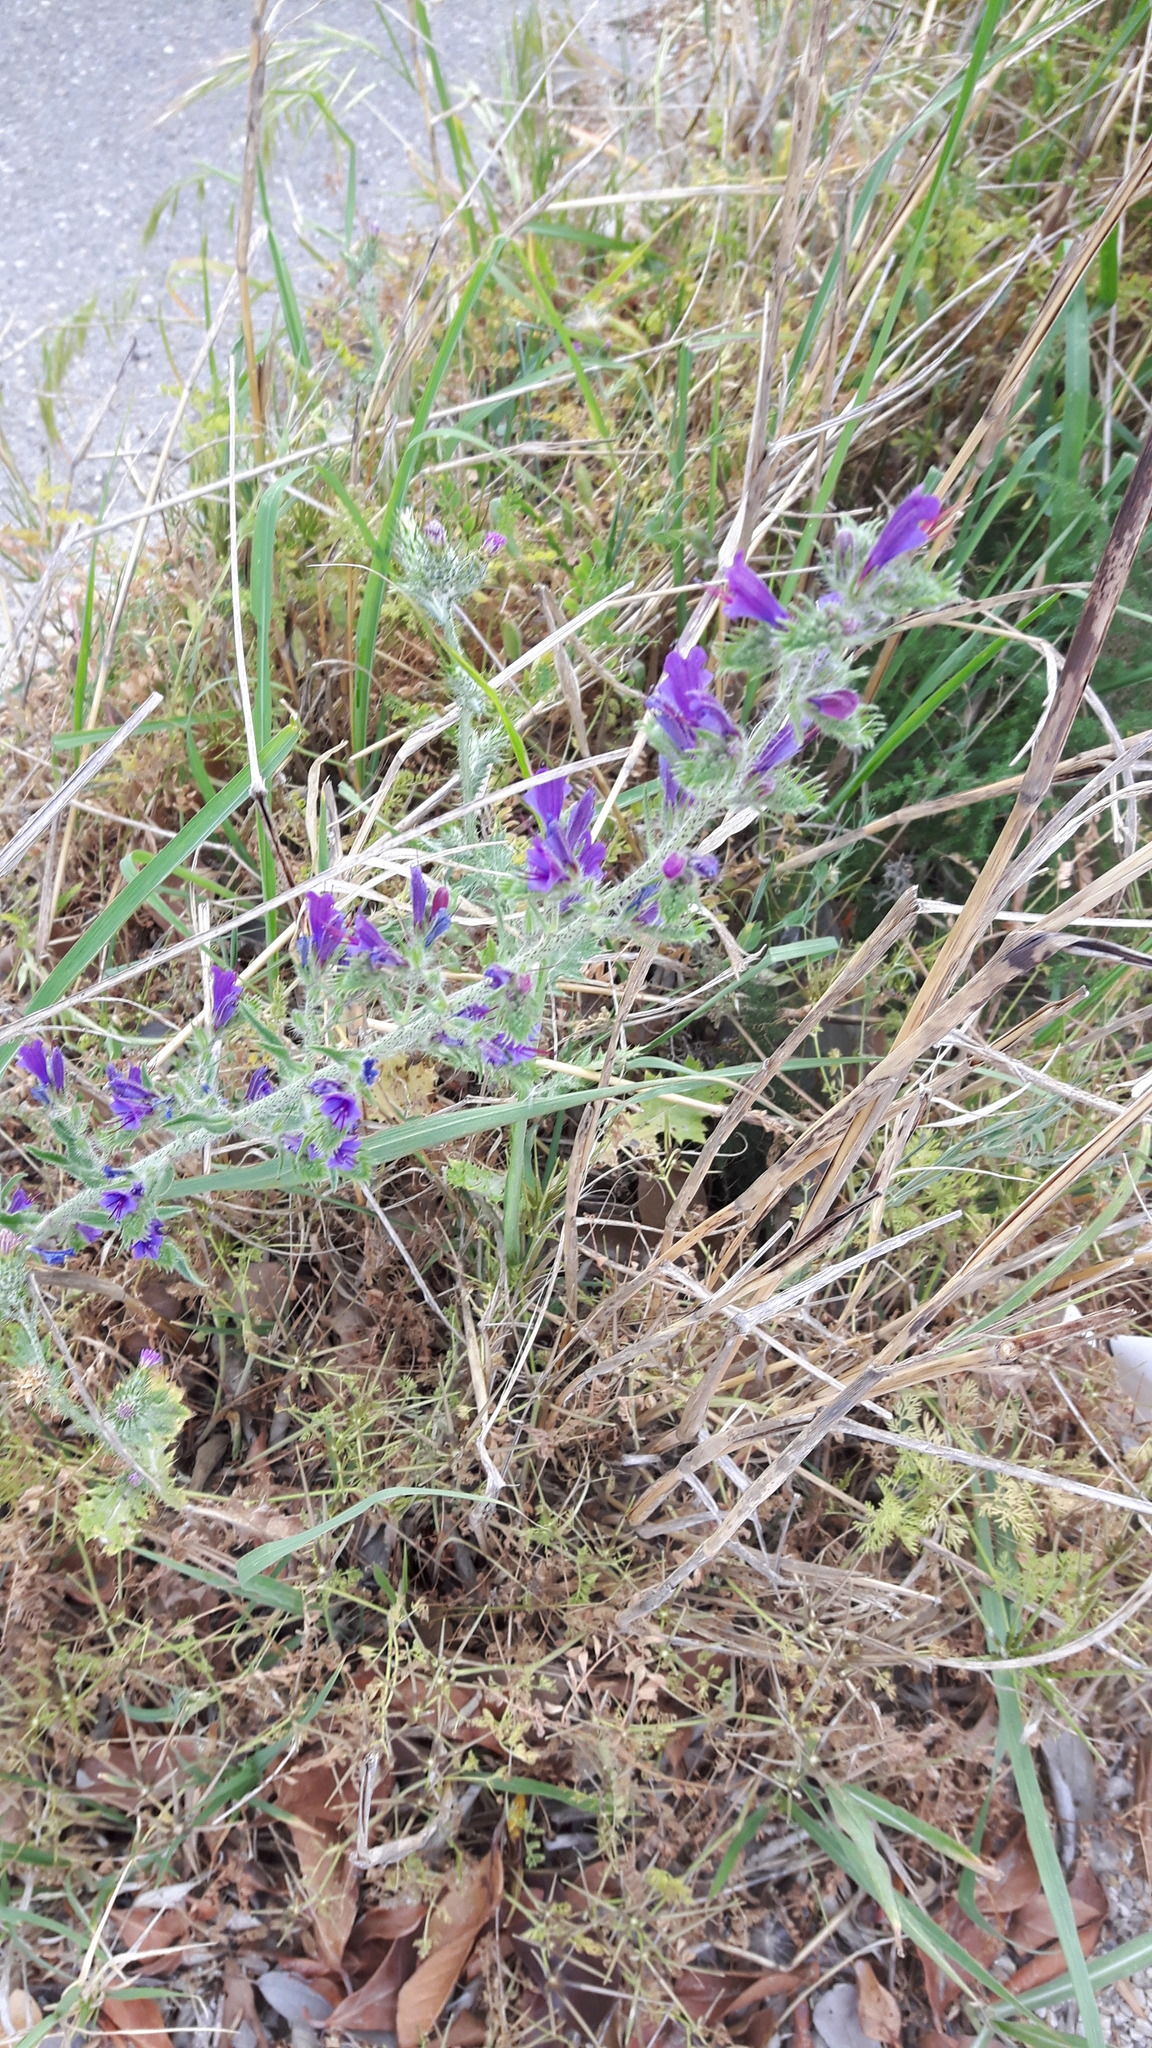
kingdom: Plantae
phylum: Tracheophyta
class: Magnoliopsida
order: Boraginales
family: Boraginaceae
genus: Echium
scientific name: Echium vulgare
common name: Common viper's bugloss
